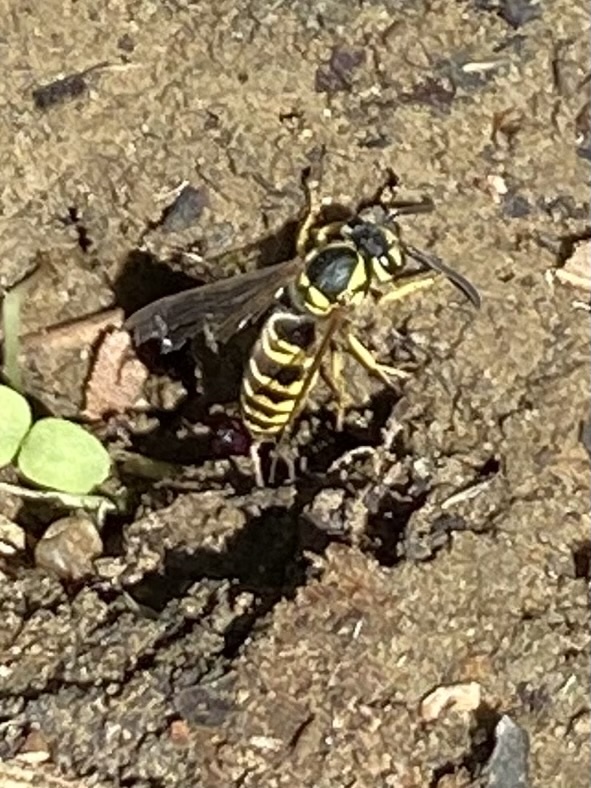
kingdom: Animalia
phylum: Arthropoda
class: Insecta
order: Hymenoptera
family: Vespidae
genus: Vespula
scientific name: Vespula maculifrons
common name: Eastern yellowjacket
